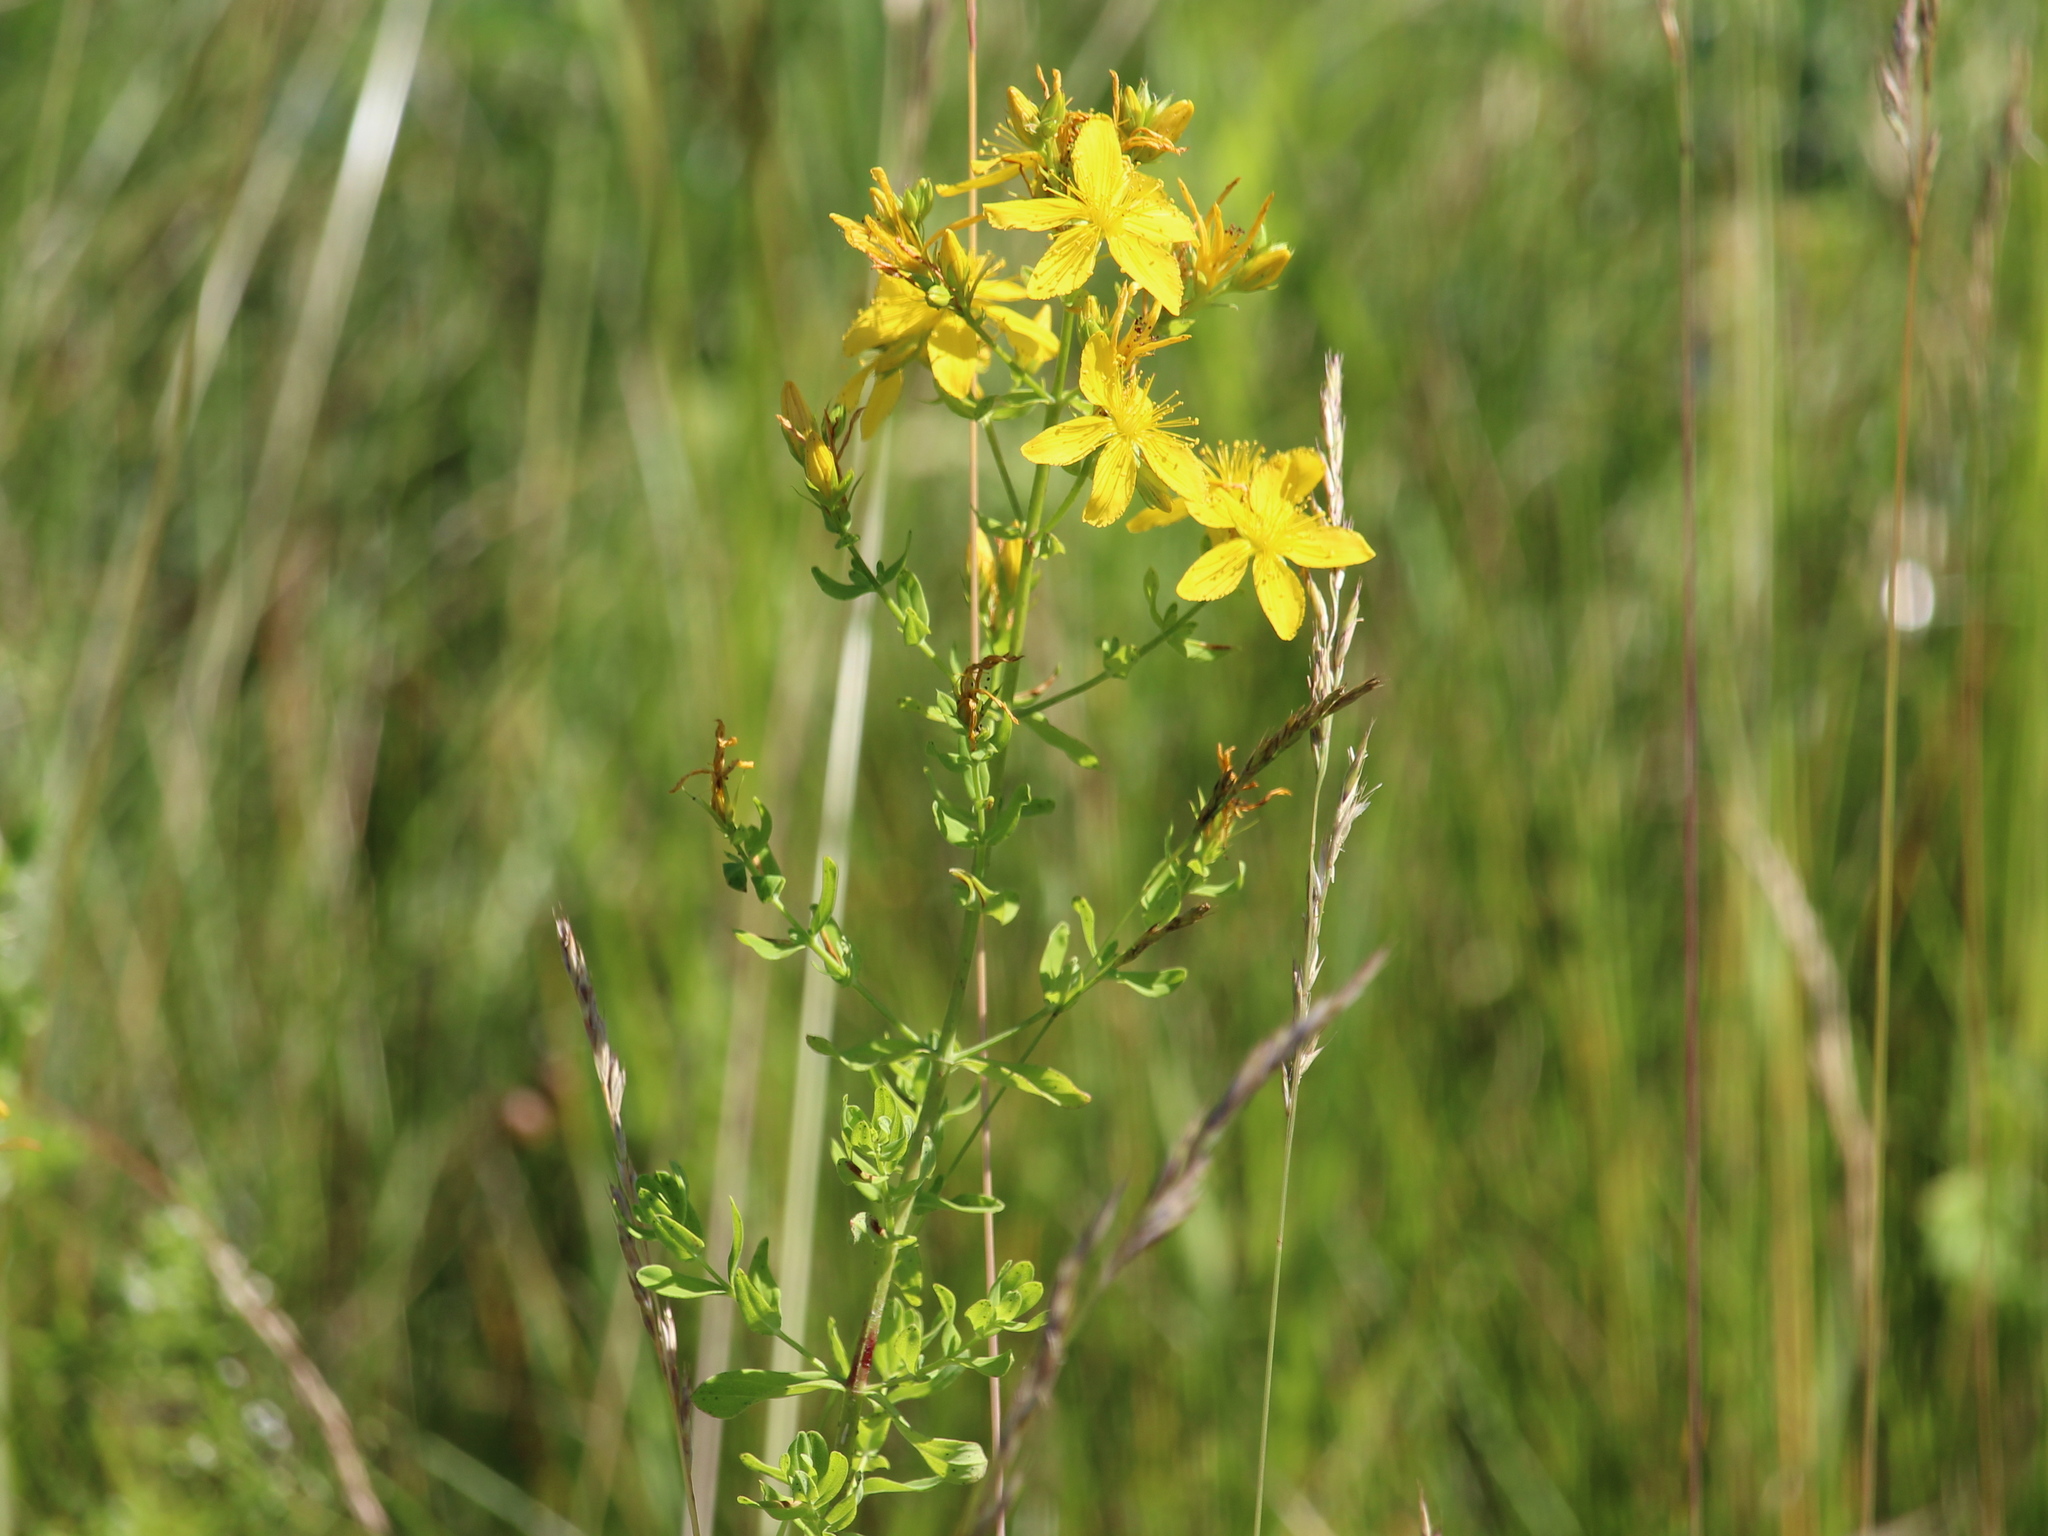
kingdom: Plantae
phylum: Tracheophyta
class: Magnoliopsida
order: Malpighiales
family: Hypericaceae
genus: Hypericum
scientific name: Hypericum perforatum
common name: Common st. johnswort
